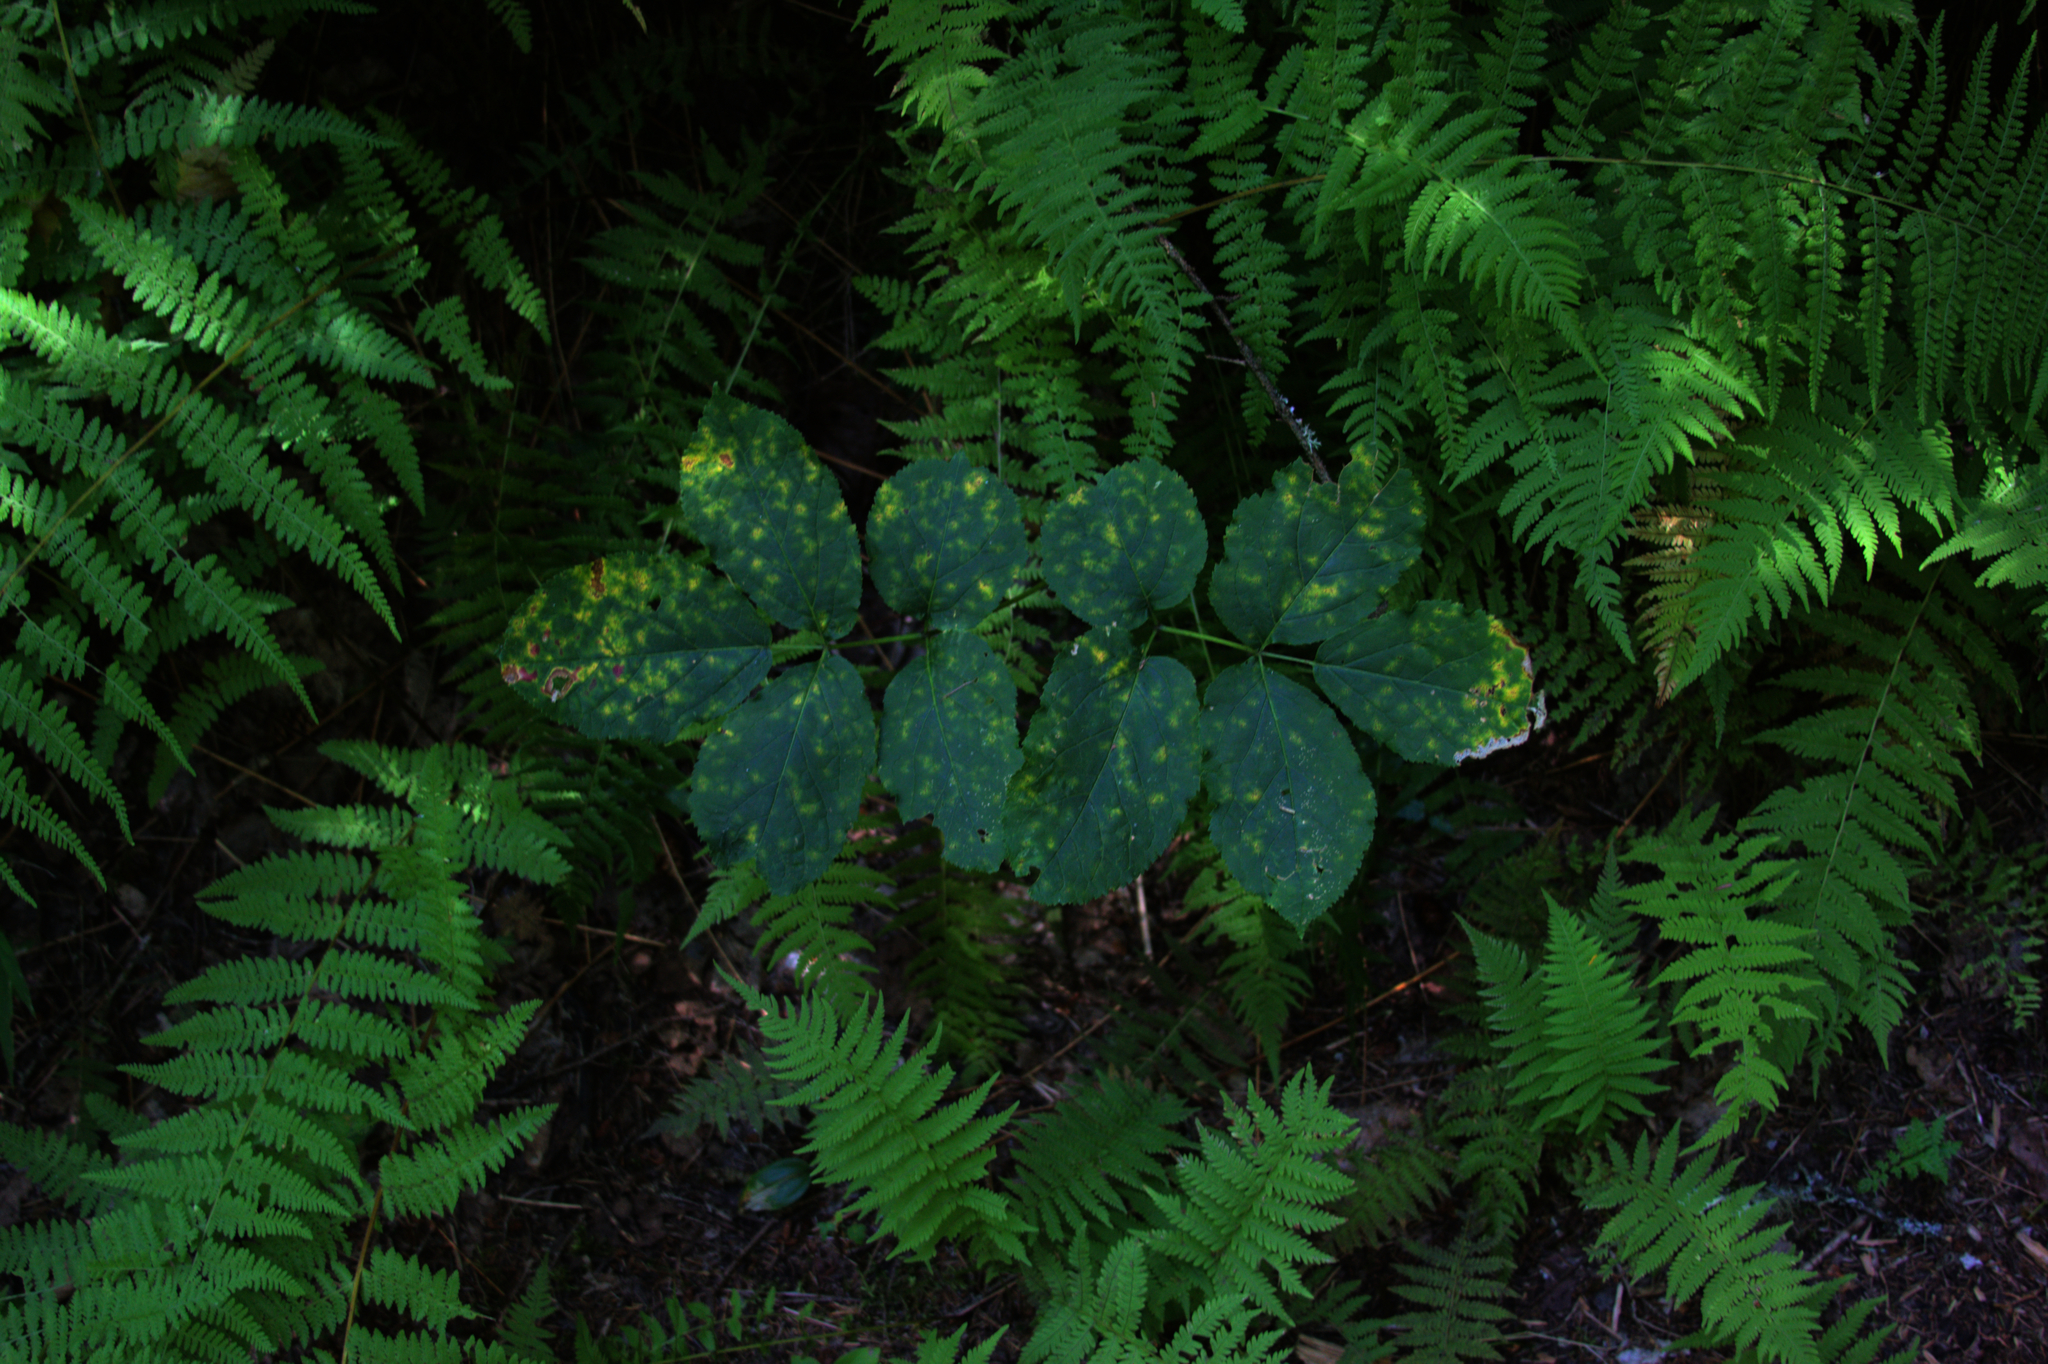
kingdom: Plantae
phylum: Tracheophyta
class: Magnoliopsida
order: Apiales
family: Araliaceae
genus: Aralia
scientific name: Aralia nudicaulis
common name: Wild sarsaparilla
